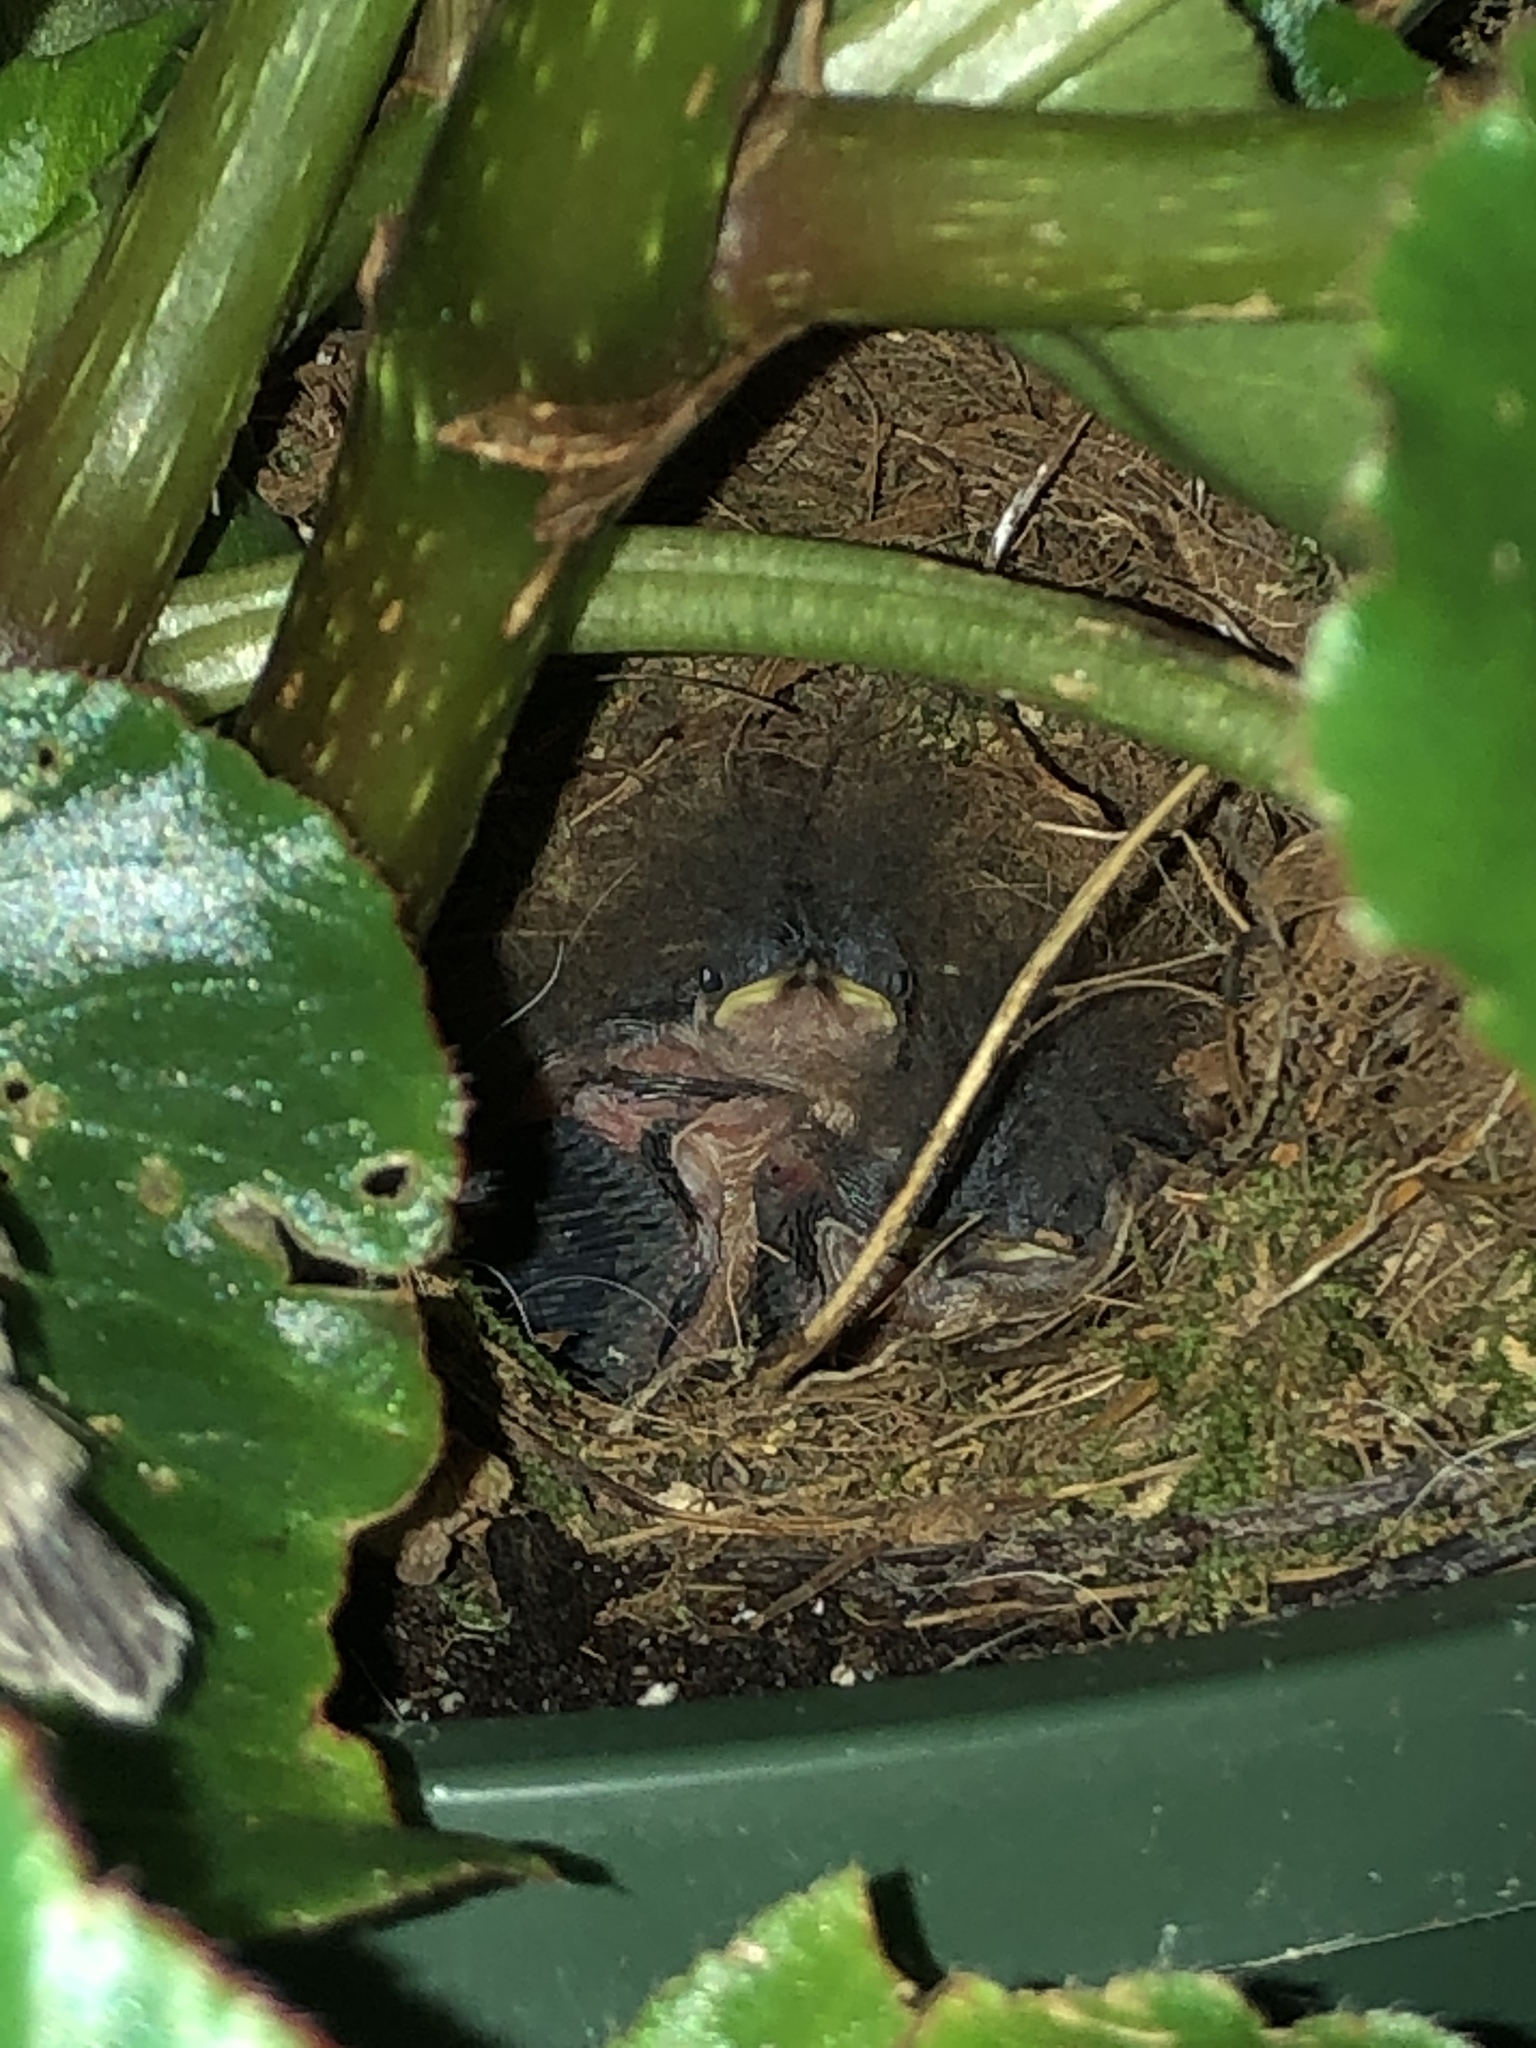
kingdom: Animalia
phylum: Chordata
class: Aves
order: Passeriformes
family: Troglodytidae
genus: Thryothorus
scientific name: Thryothorus ludovicianus
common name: Carolina wren
